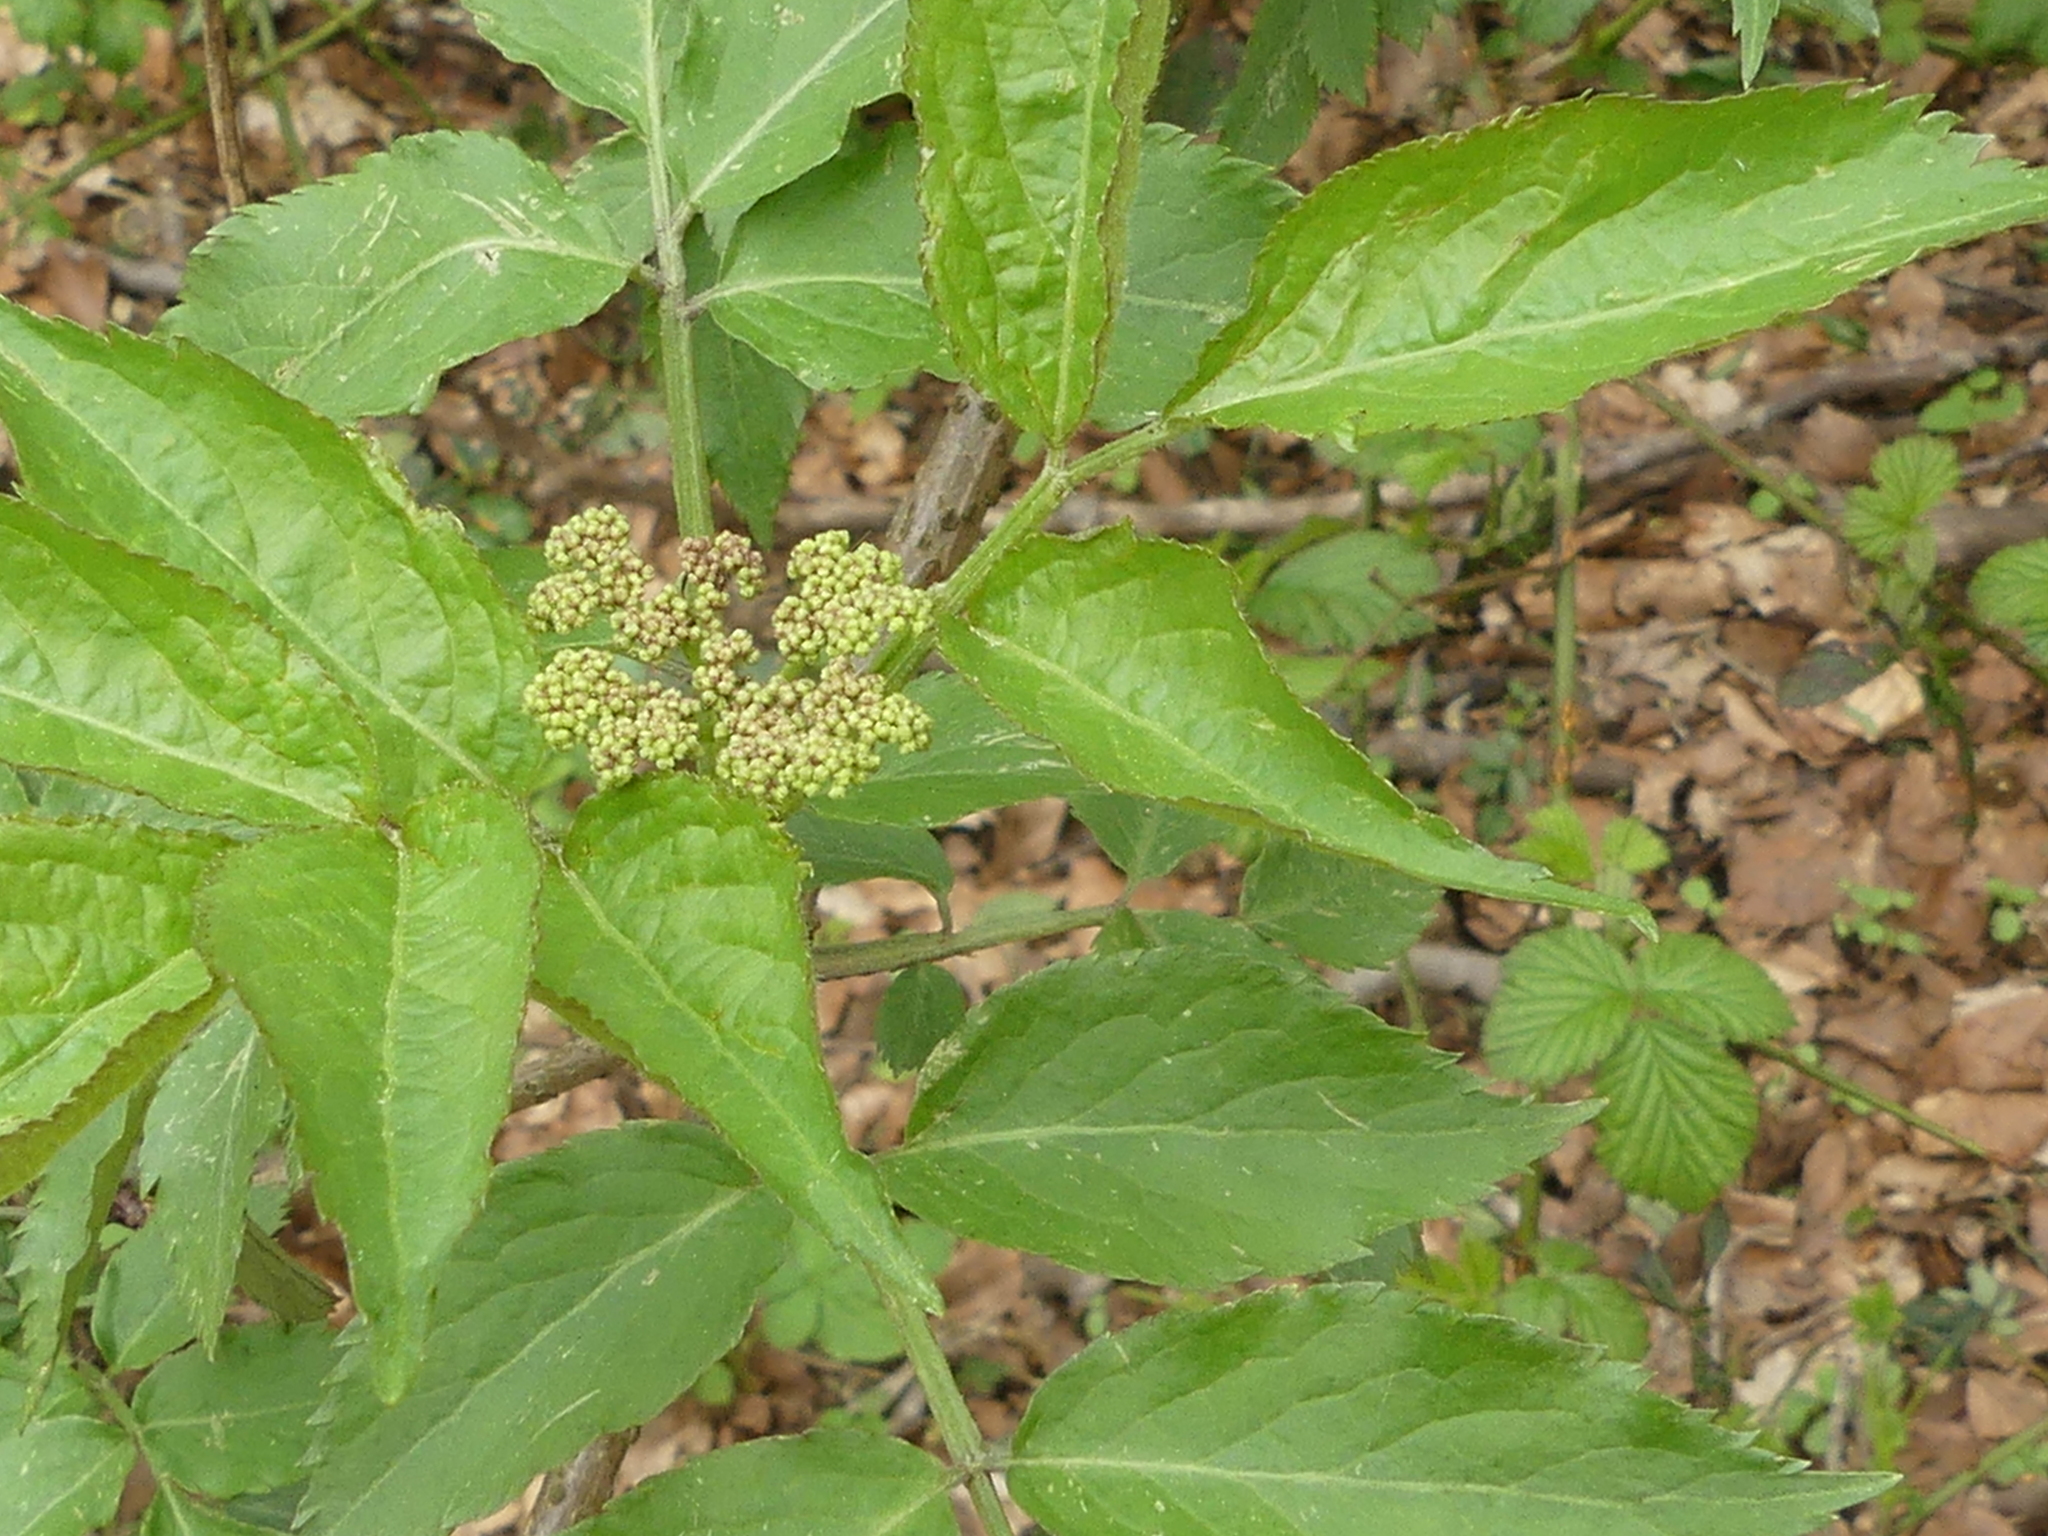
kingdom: Plantae
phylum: Tracheophyta
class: Magnoliopsida
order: Dipsacales
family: Viburnaceae
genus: Sambucus
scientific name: Sambucus nigra
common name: Elder
